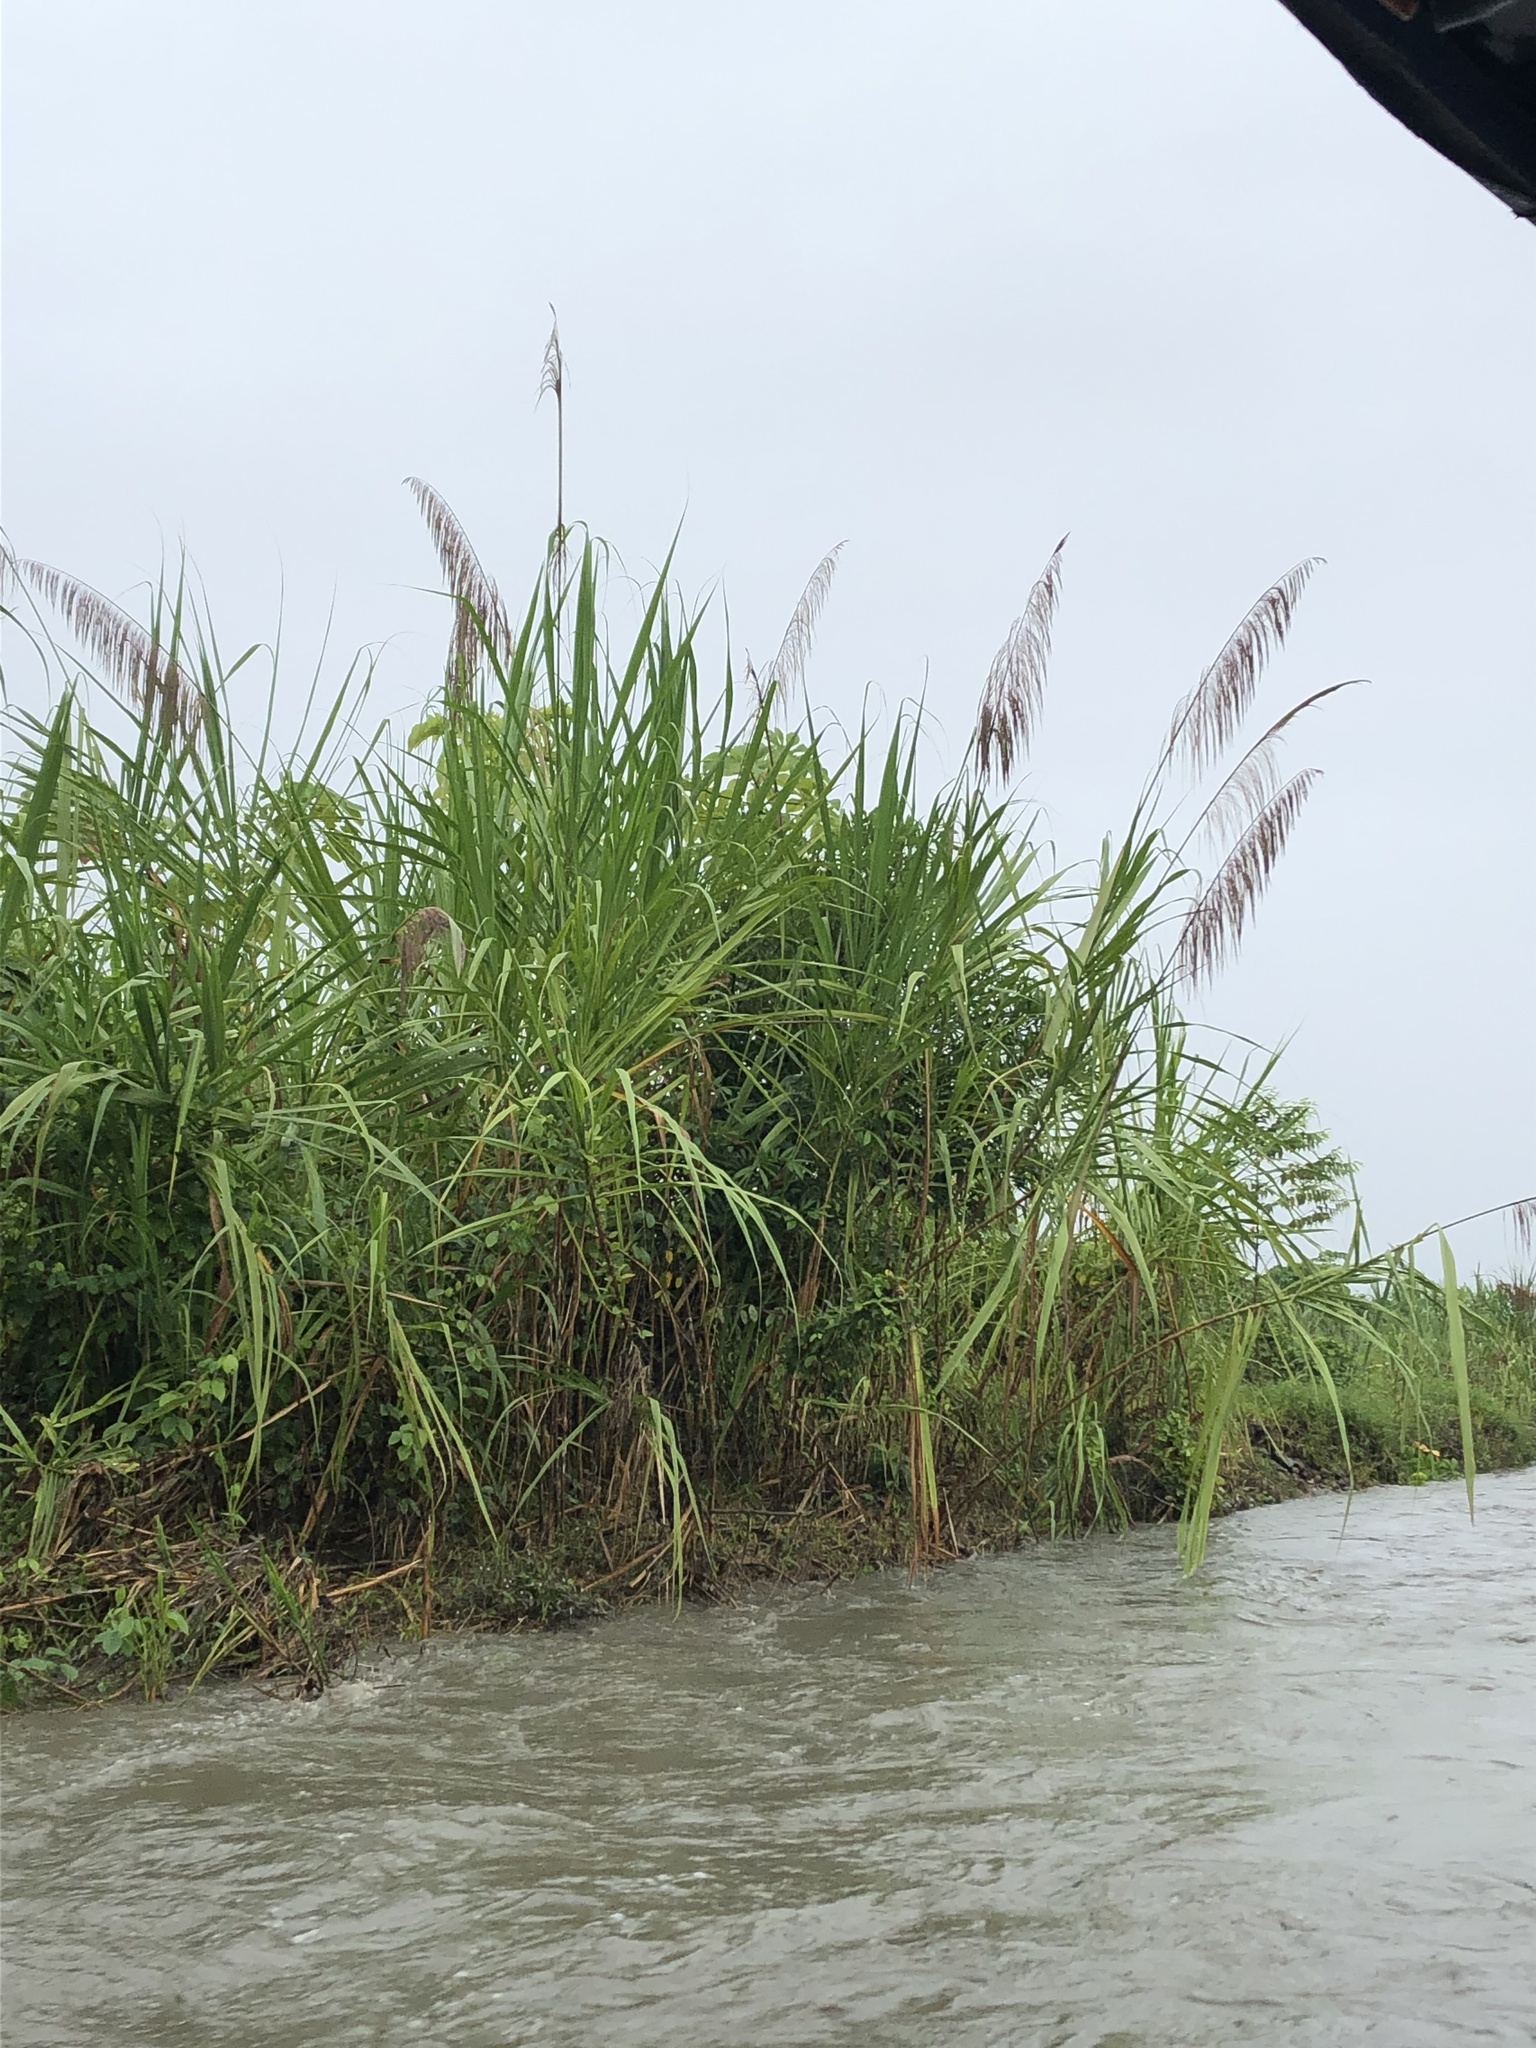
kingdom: Plantae
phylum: Tracheophyta
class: Liliopsida
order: Poales
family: Poaceae
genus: Gynerium
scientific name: Gynerium sagittatum
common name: Wild cane
